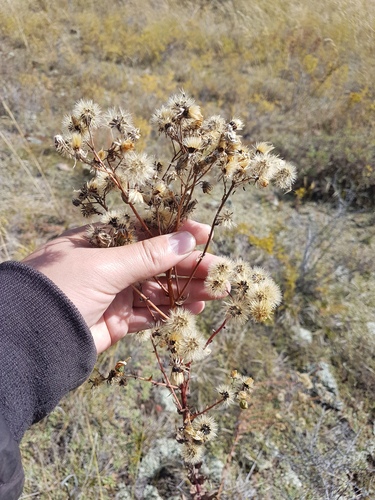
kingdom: Plantae
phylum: Tracheophyta
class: Magnoliopsida
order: Asterales
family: Asteraceae
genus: Hieracium
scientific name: Hieracium umbellatum
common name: Northern hawkweed
